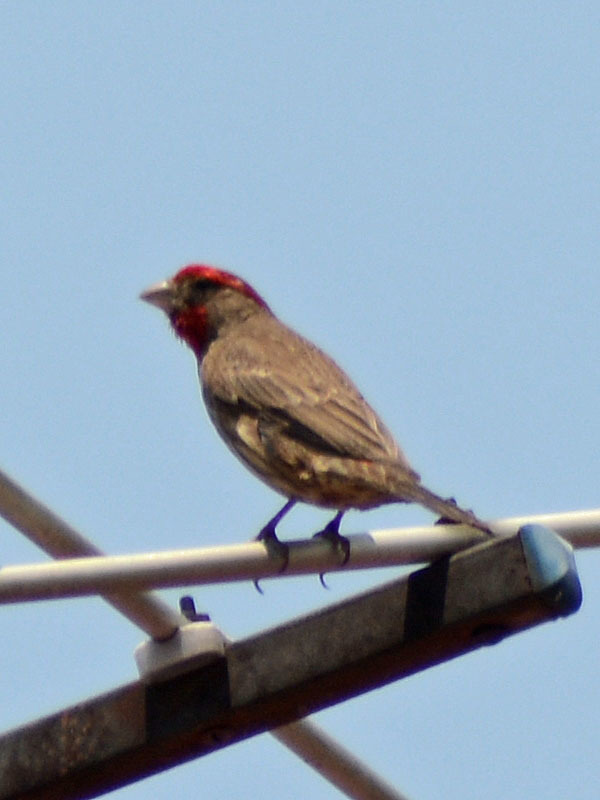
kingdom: Animalia
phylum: Chordata
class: Aves
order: Passeriformes
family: Fringillidae
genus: Haemorhous
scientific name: Haemorhous mexicanus
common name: House finch
